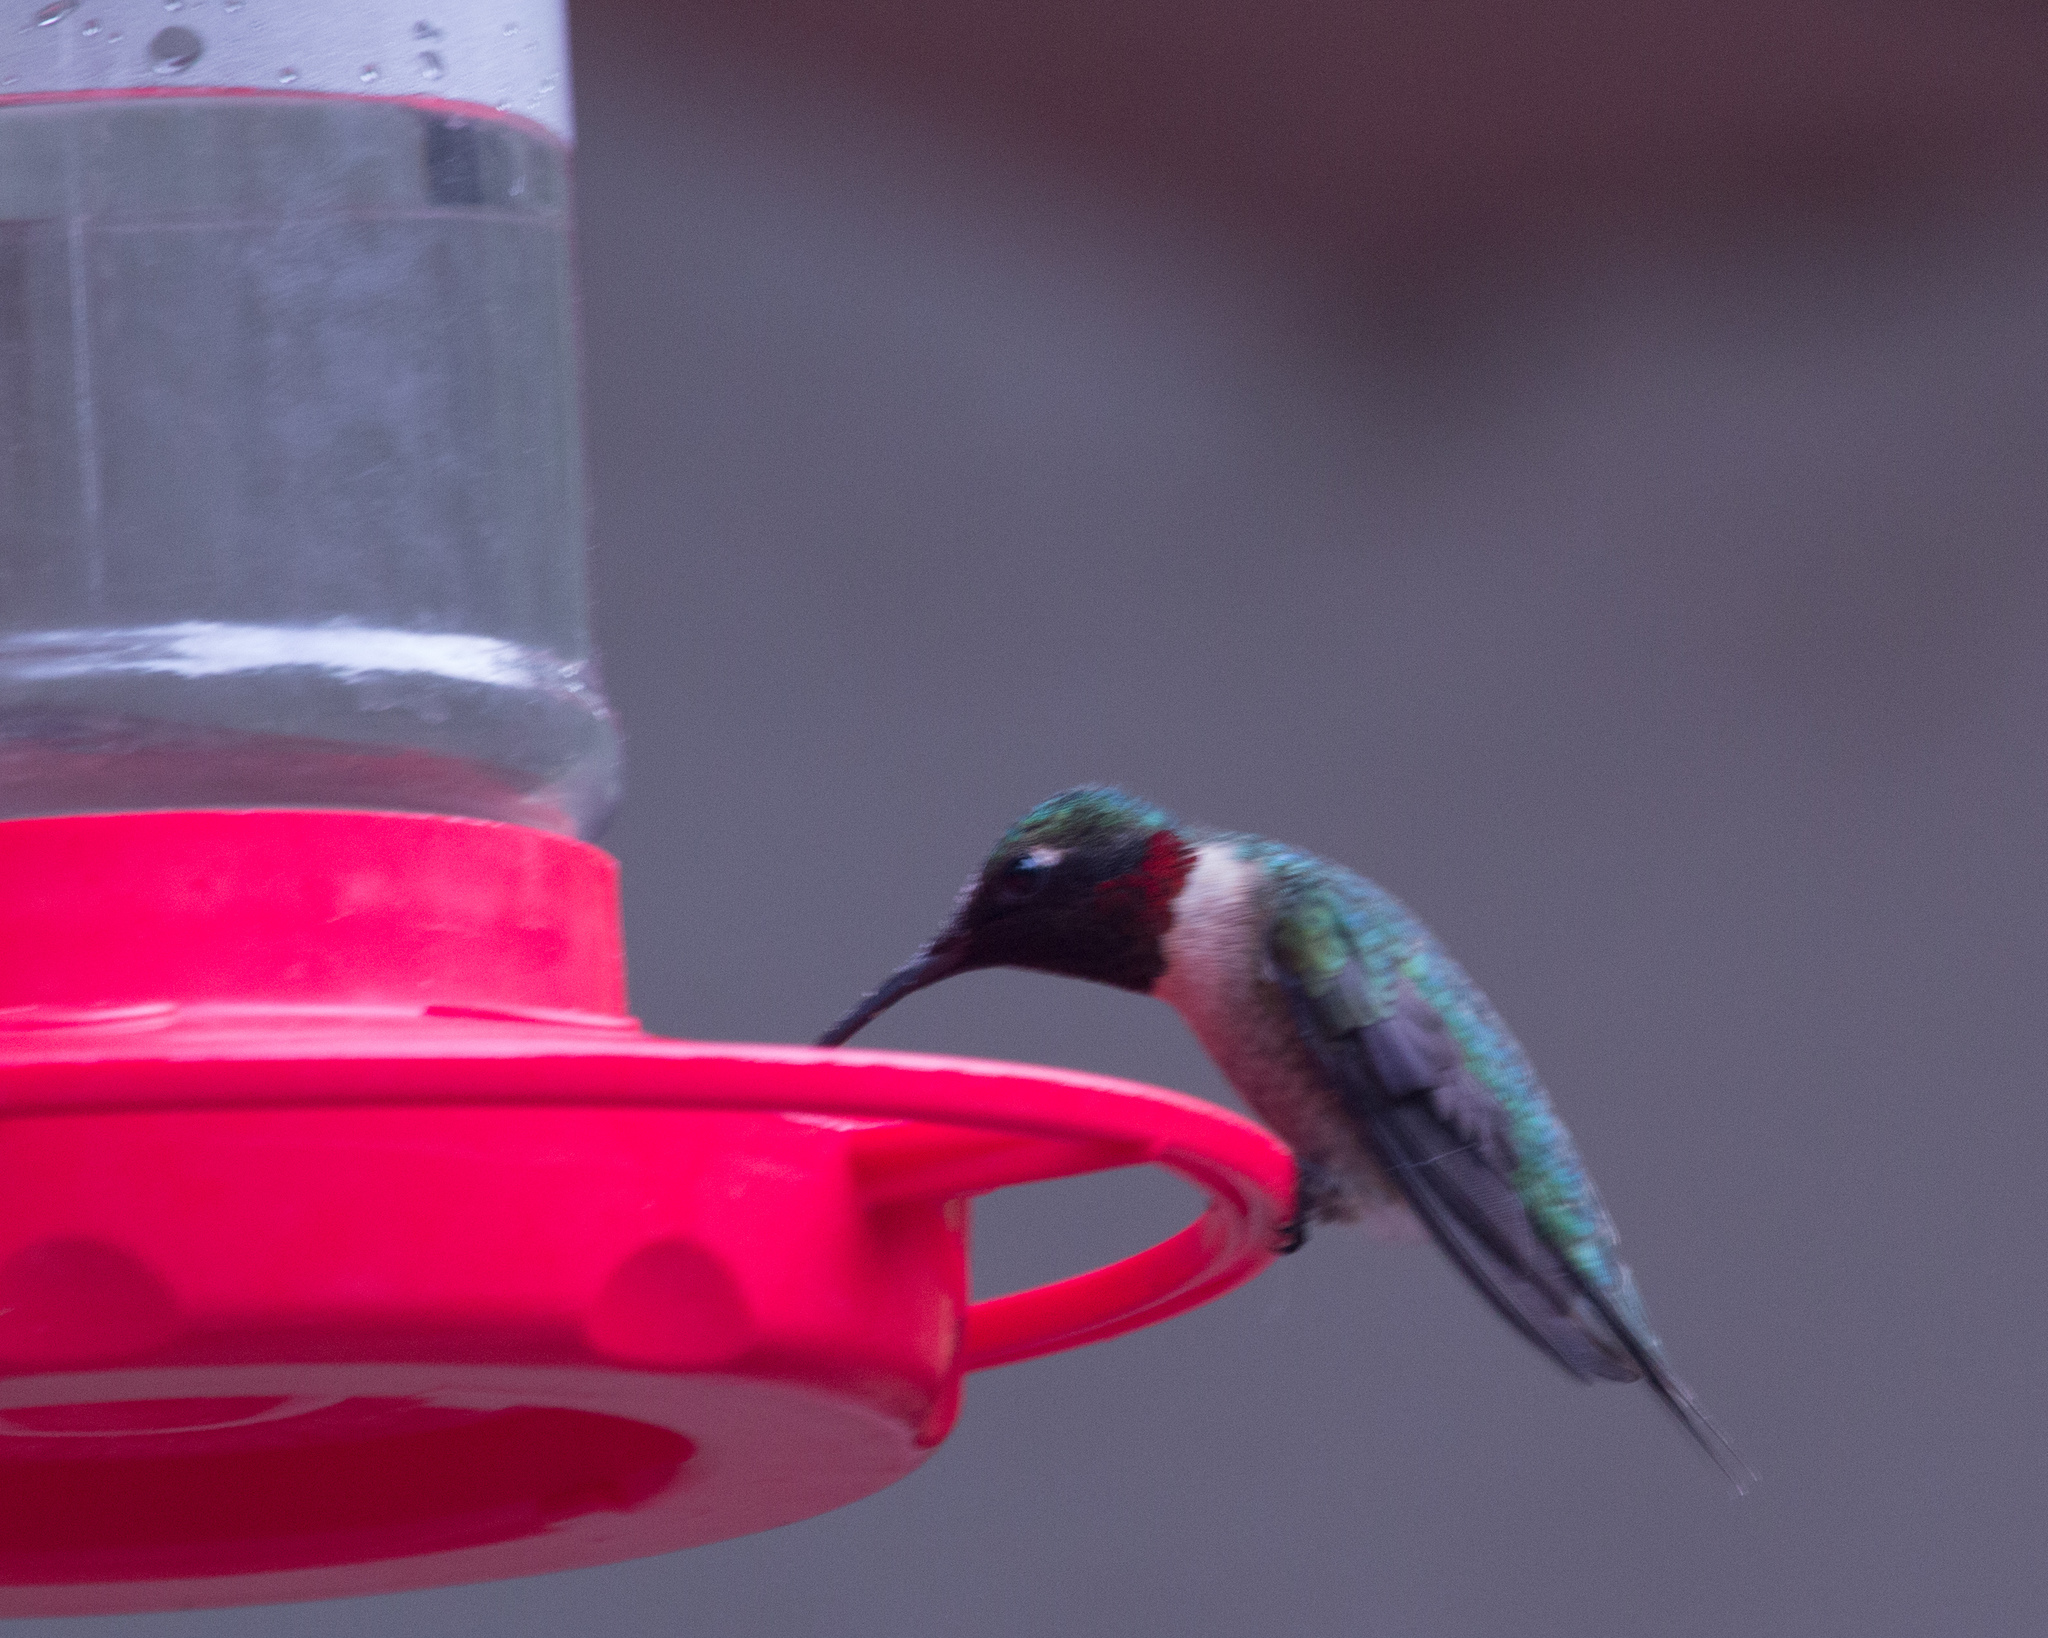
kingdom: Animalia
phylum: Chordata
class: Aves
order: Apodiformes
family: Trochilidae
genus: Archilochus
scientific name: Archilochus colubris
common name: Ruby-throated hummingbird
